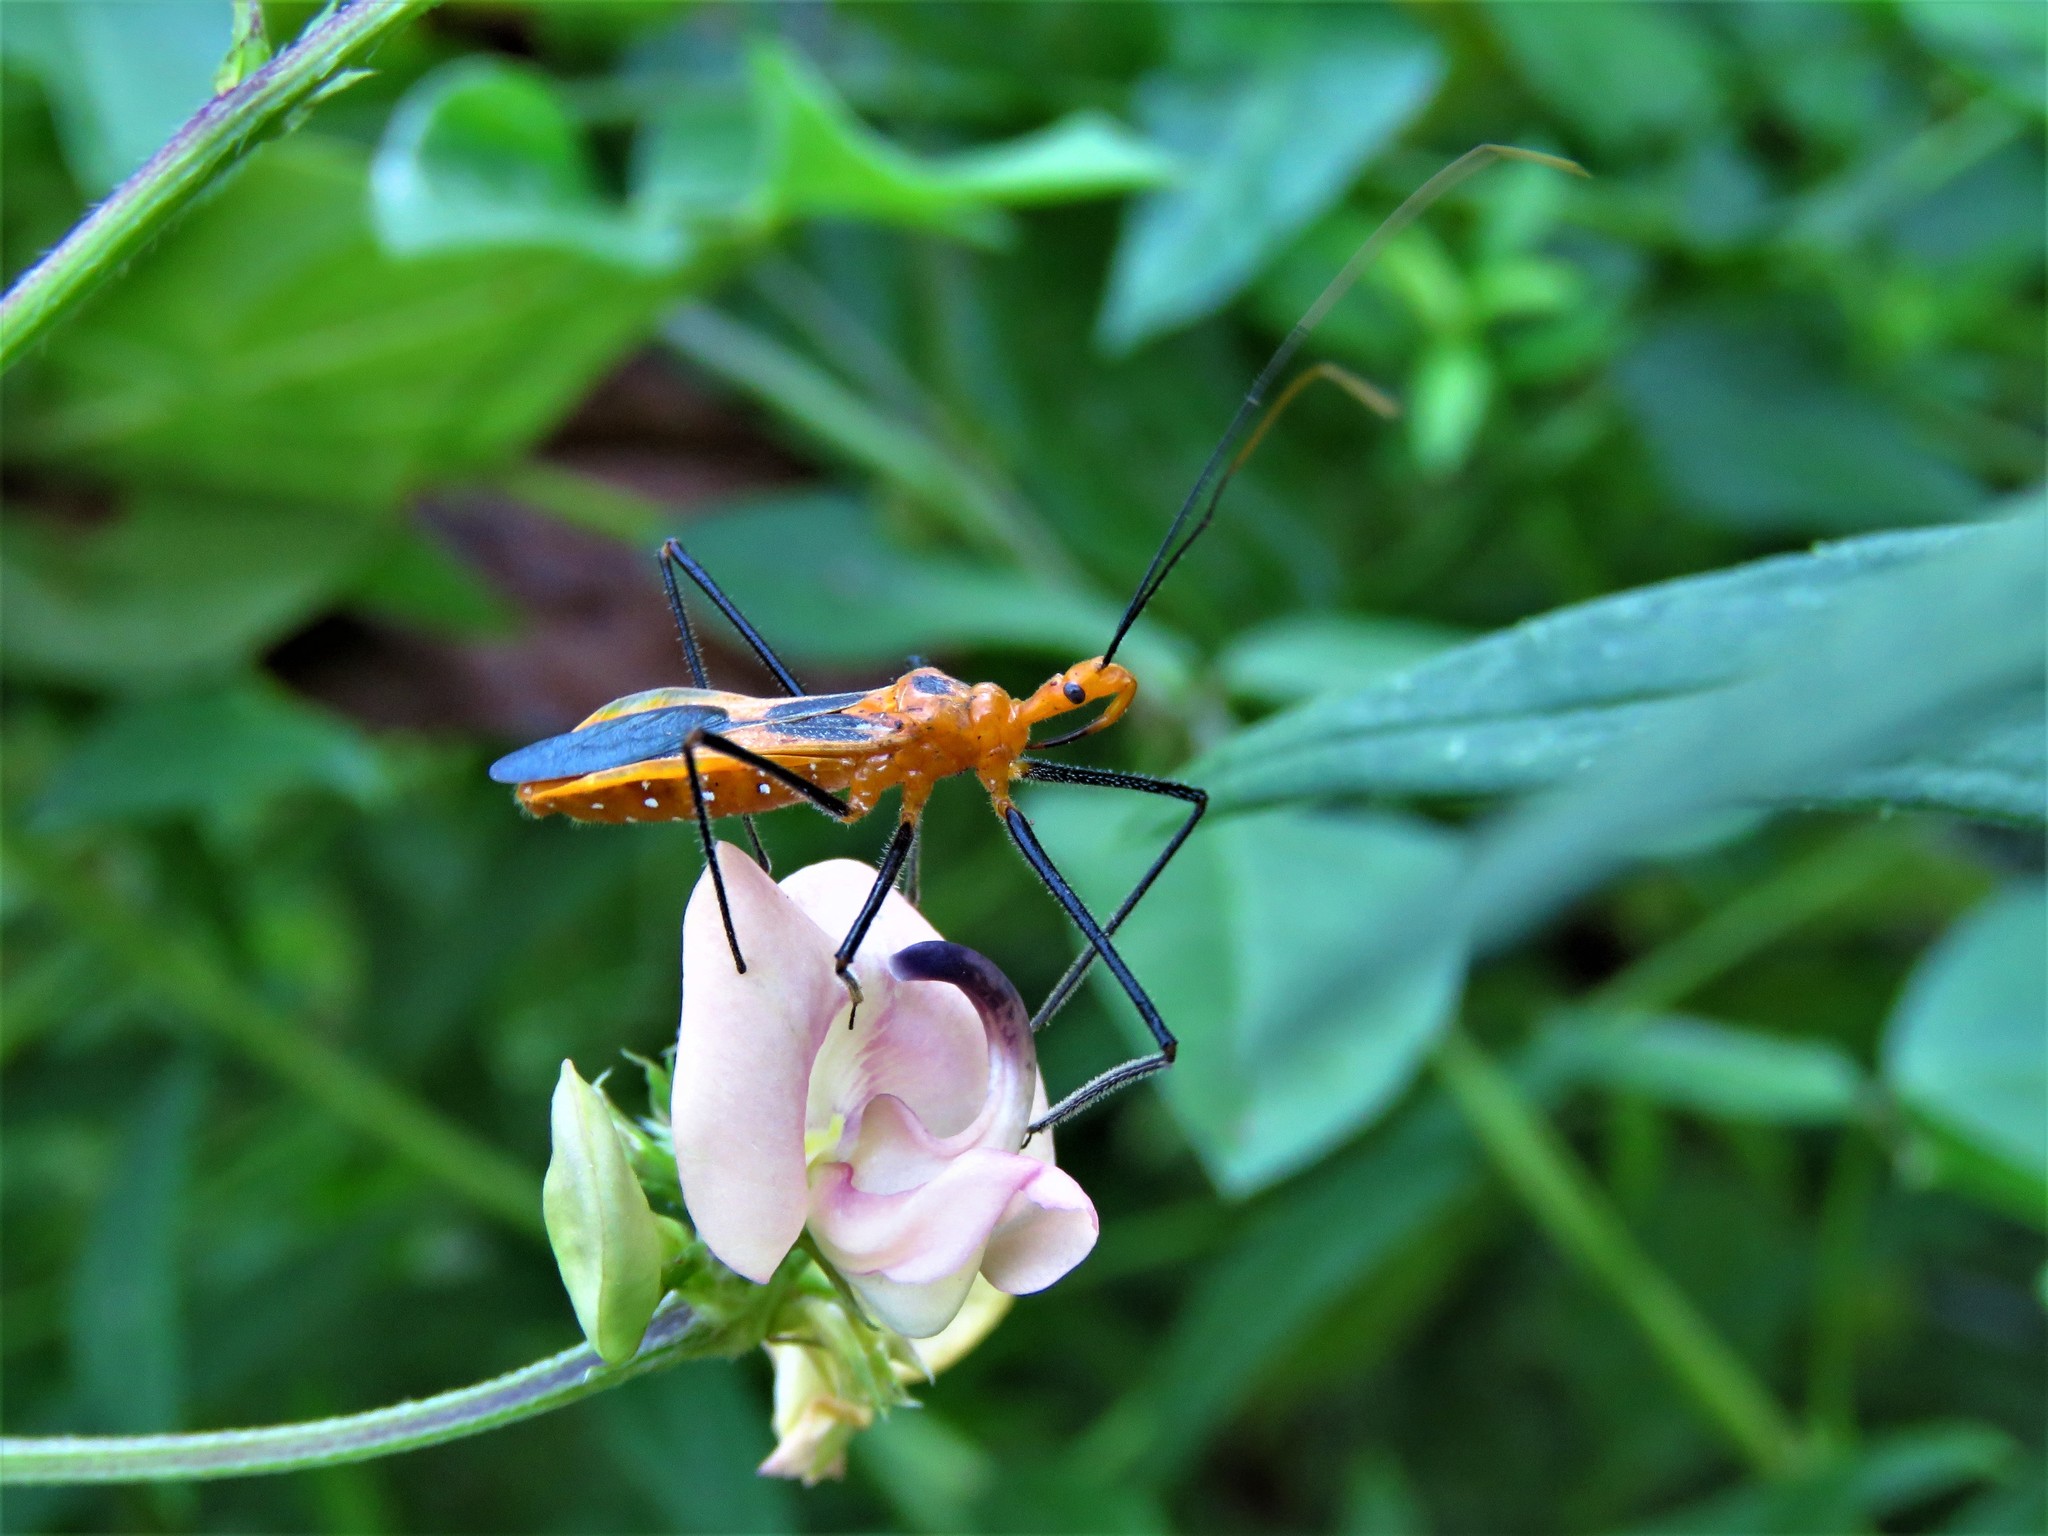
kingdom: Animalia
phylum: Arthropoda
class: Insecta
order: Hemiptera
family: Reduviidae
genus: Zelus
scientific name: Zelus longipes
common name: Milkweed assassin bug
